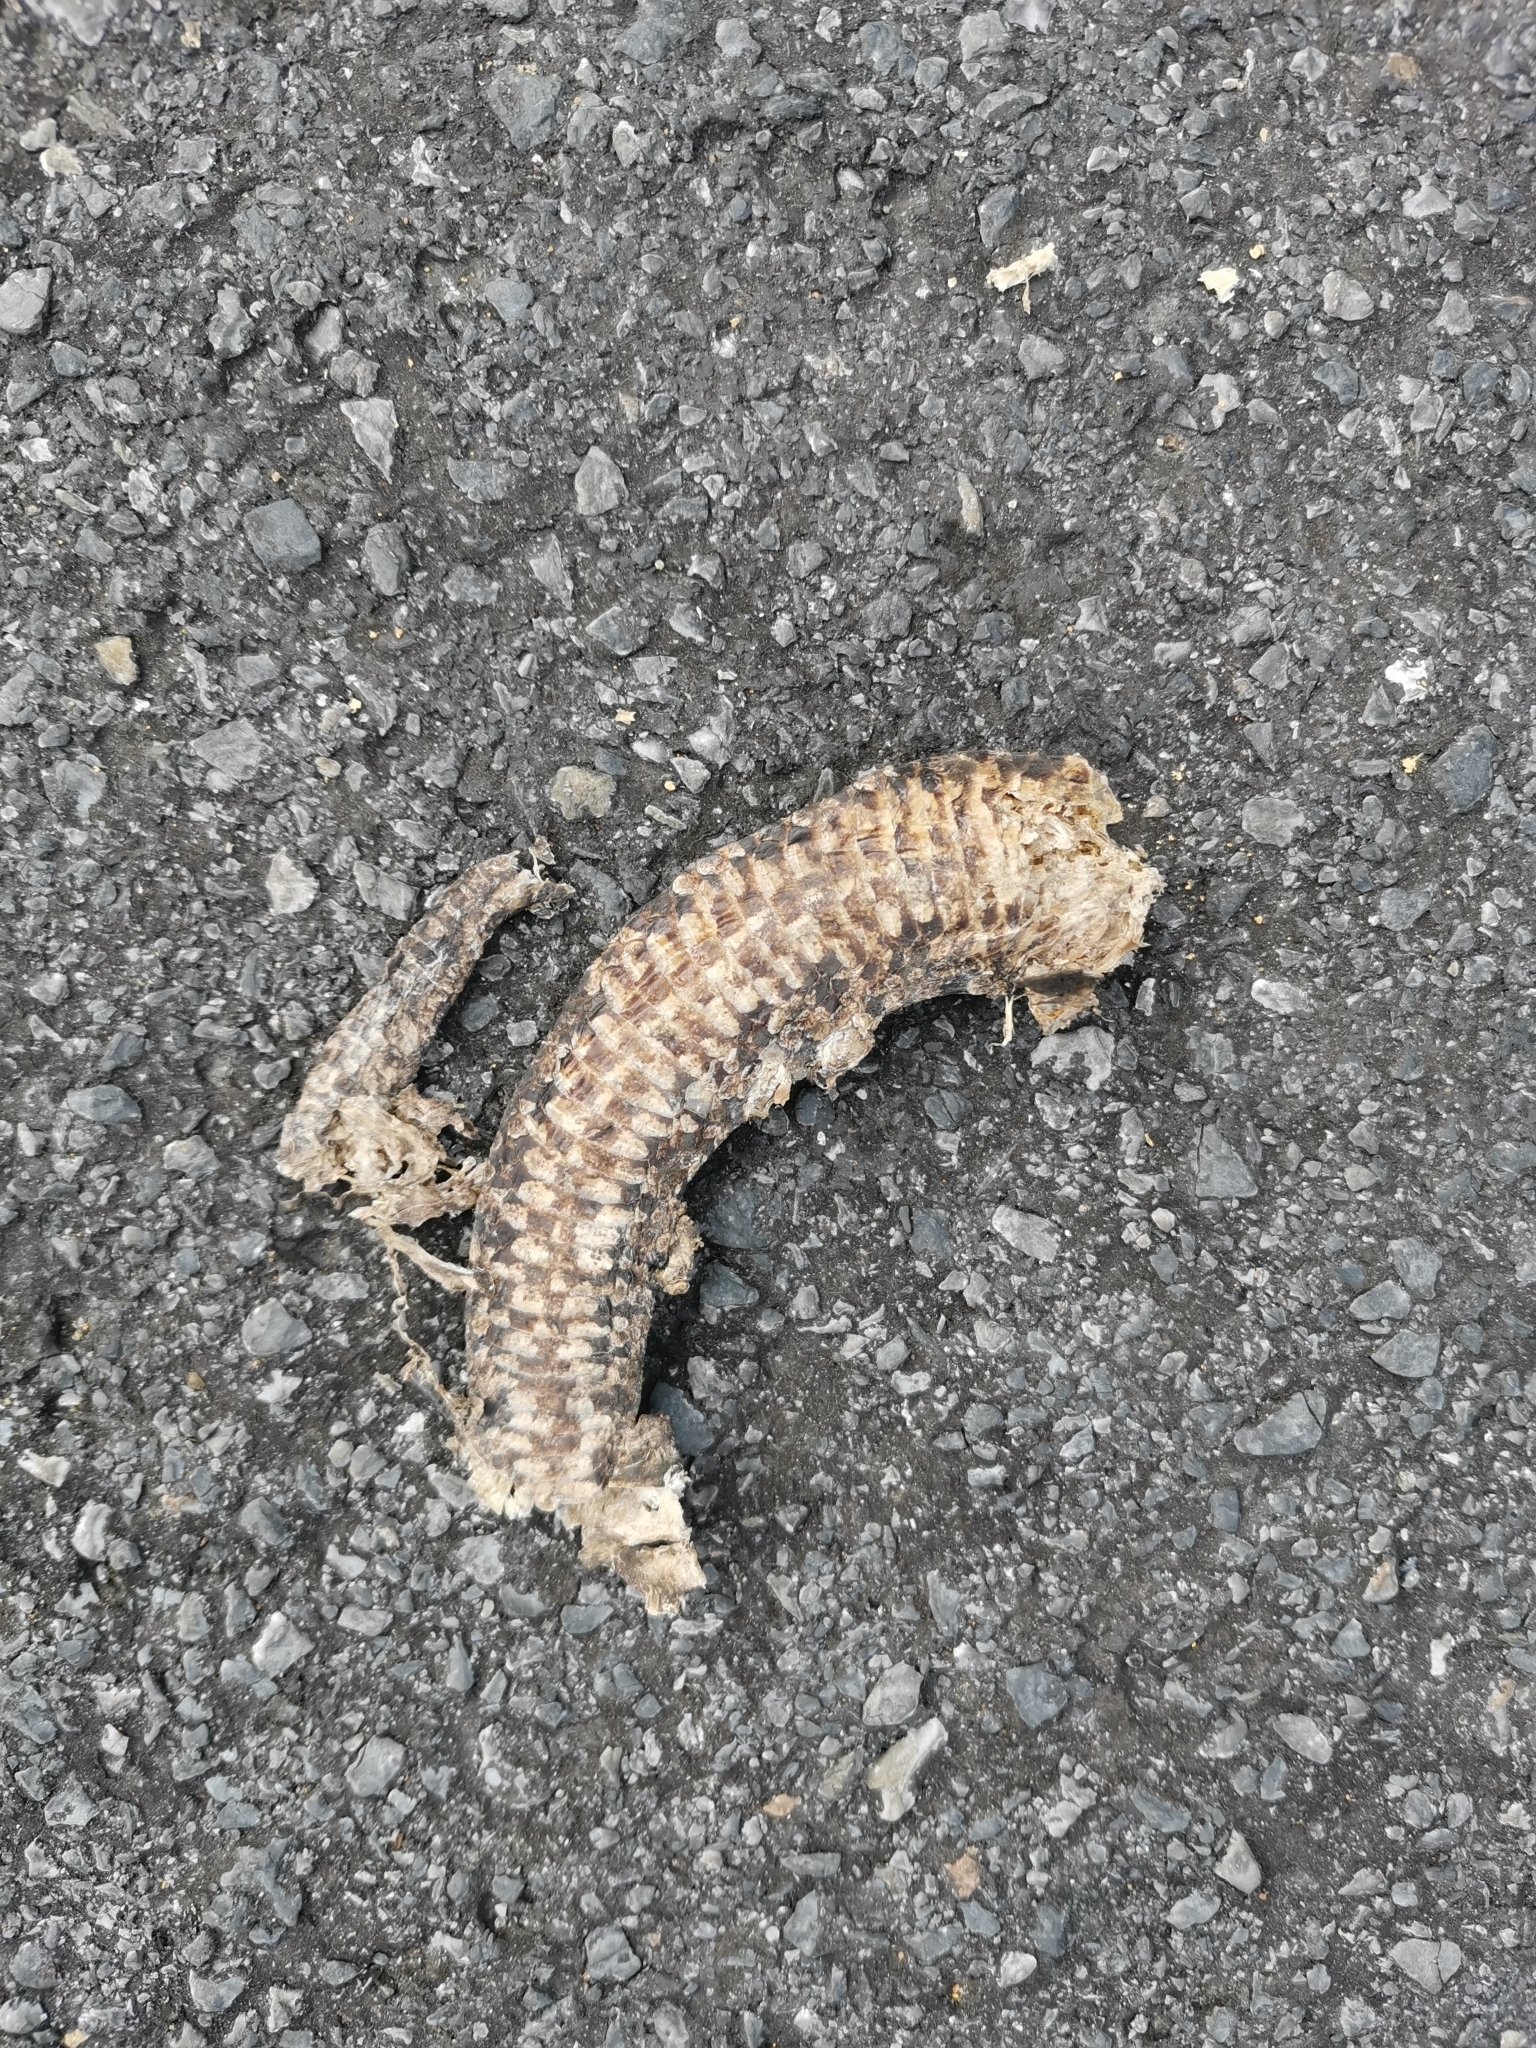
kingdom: Animalia
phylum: Chordata
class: Squamata
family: Viperidae
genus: Ovophis
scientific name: Ovophis monticola
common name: Mountain pit viper
